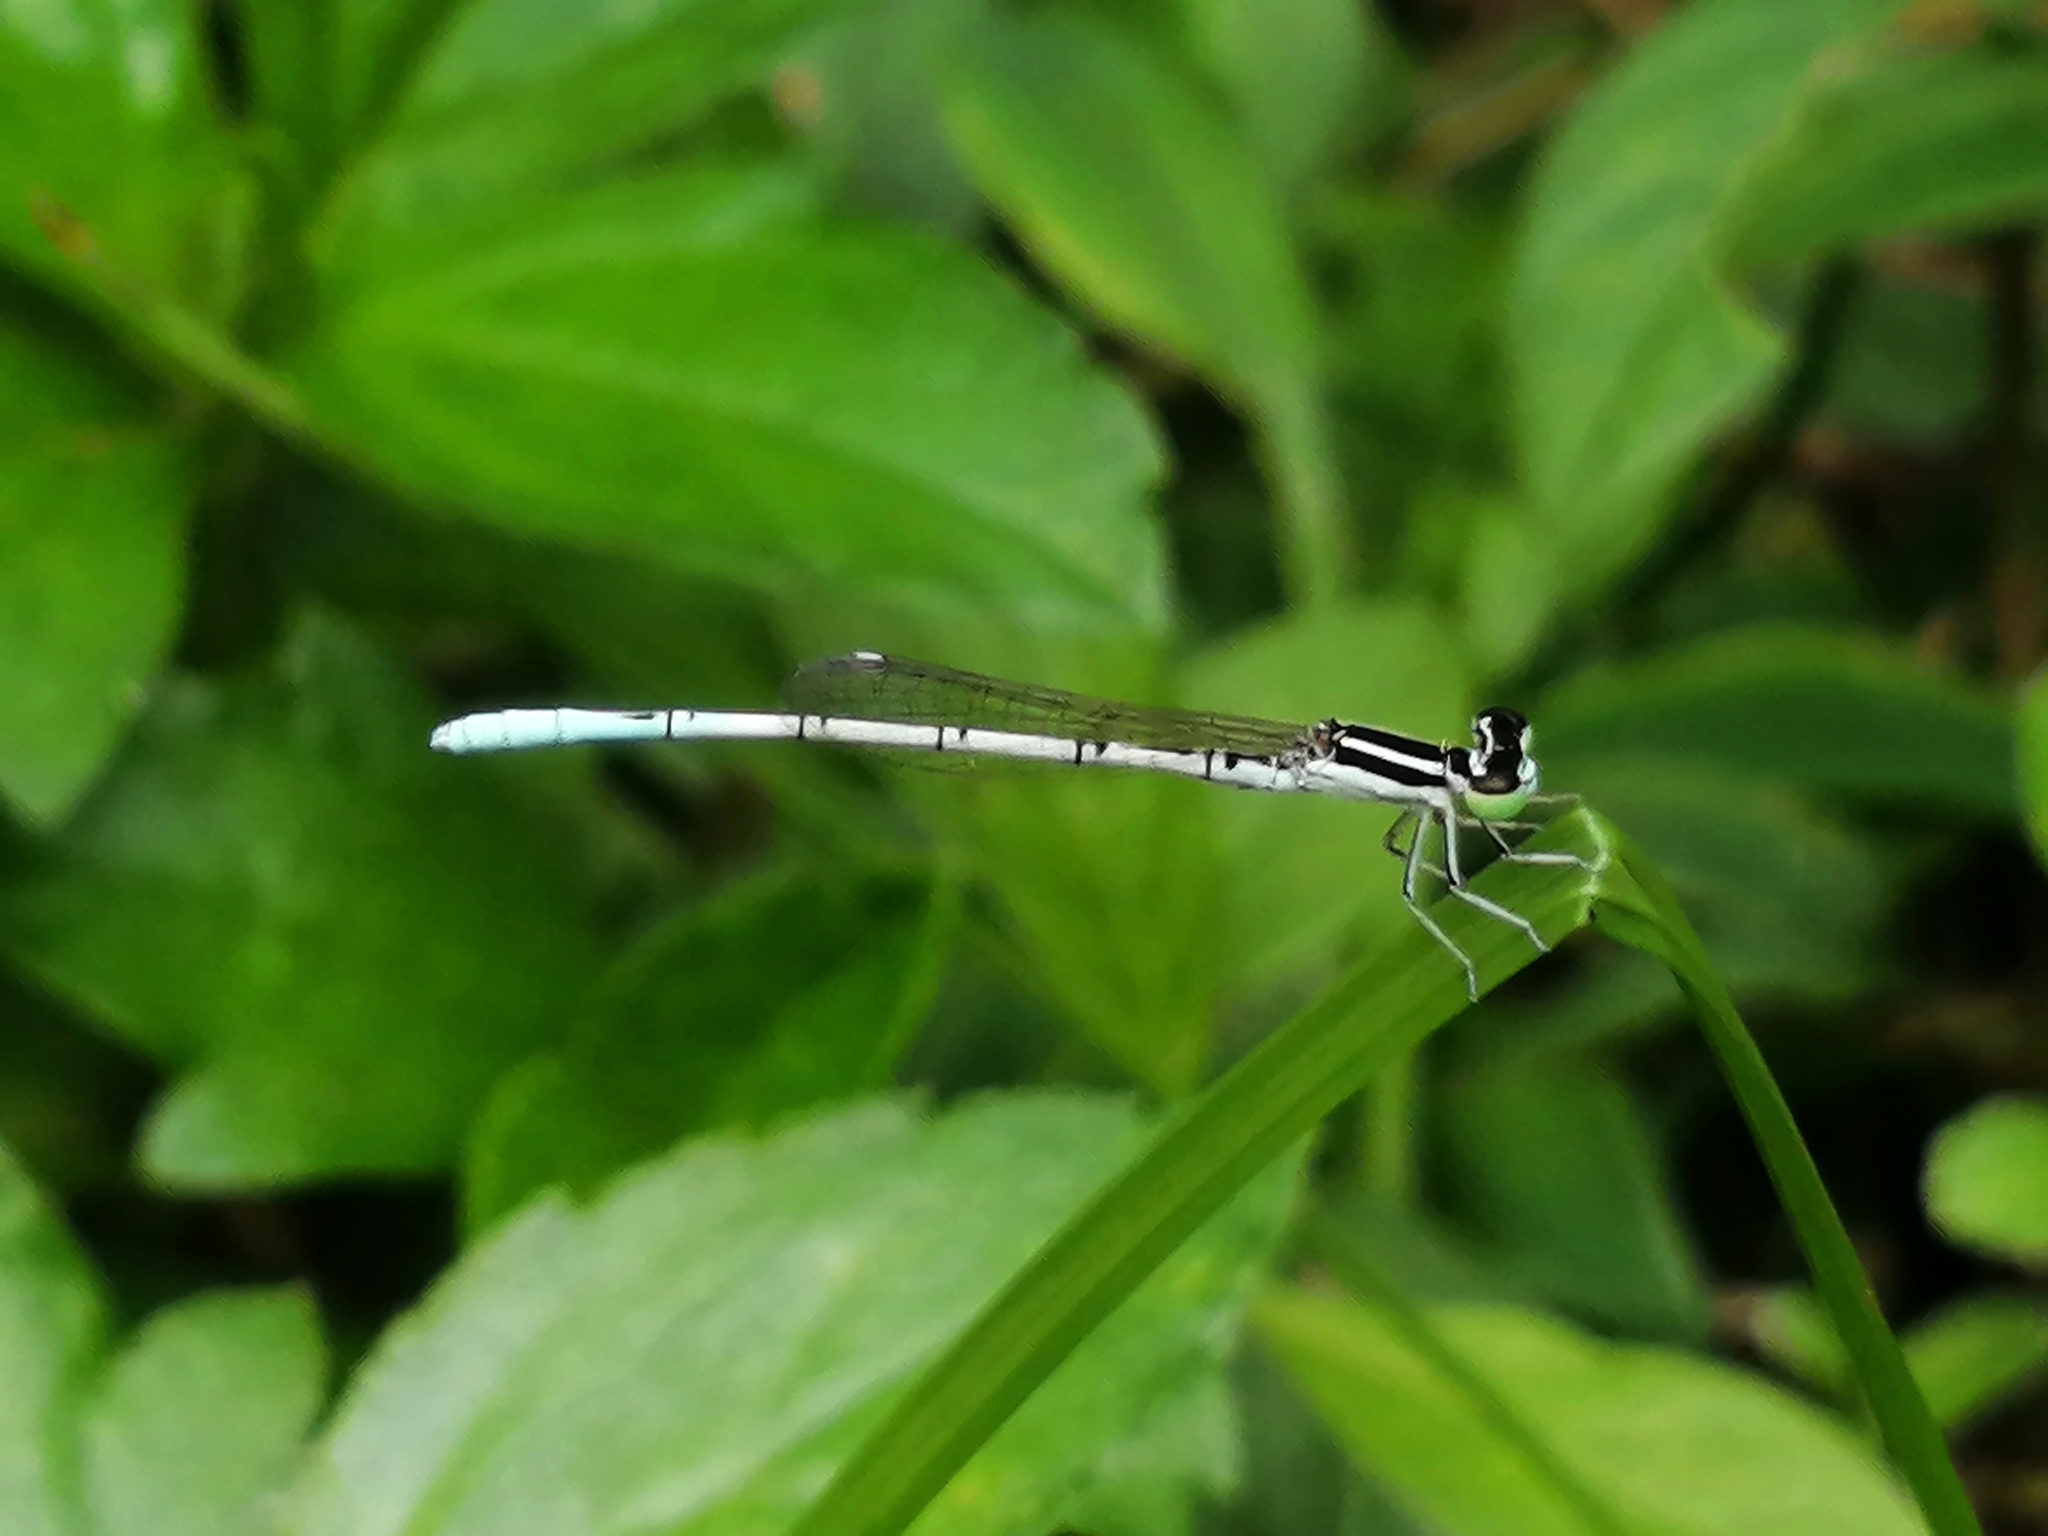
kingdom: Animalia
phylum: Arthropoda
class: Insecta
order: Odonata
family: Coenagrionidae
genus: Agriocnemis
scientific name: Agriocnemis pieris
